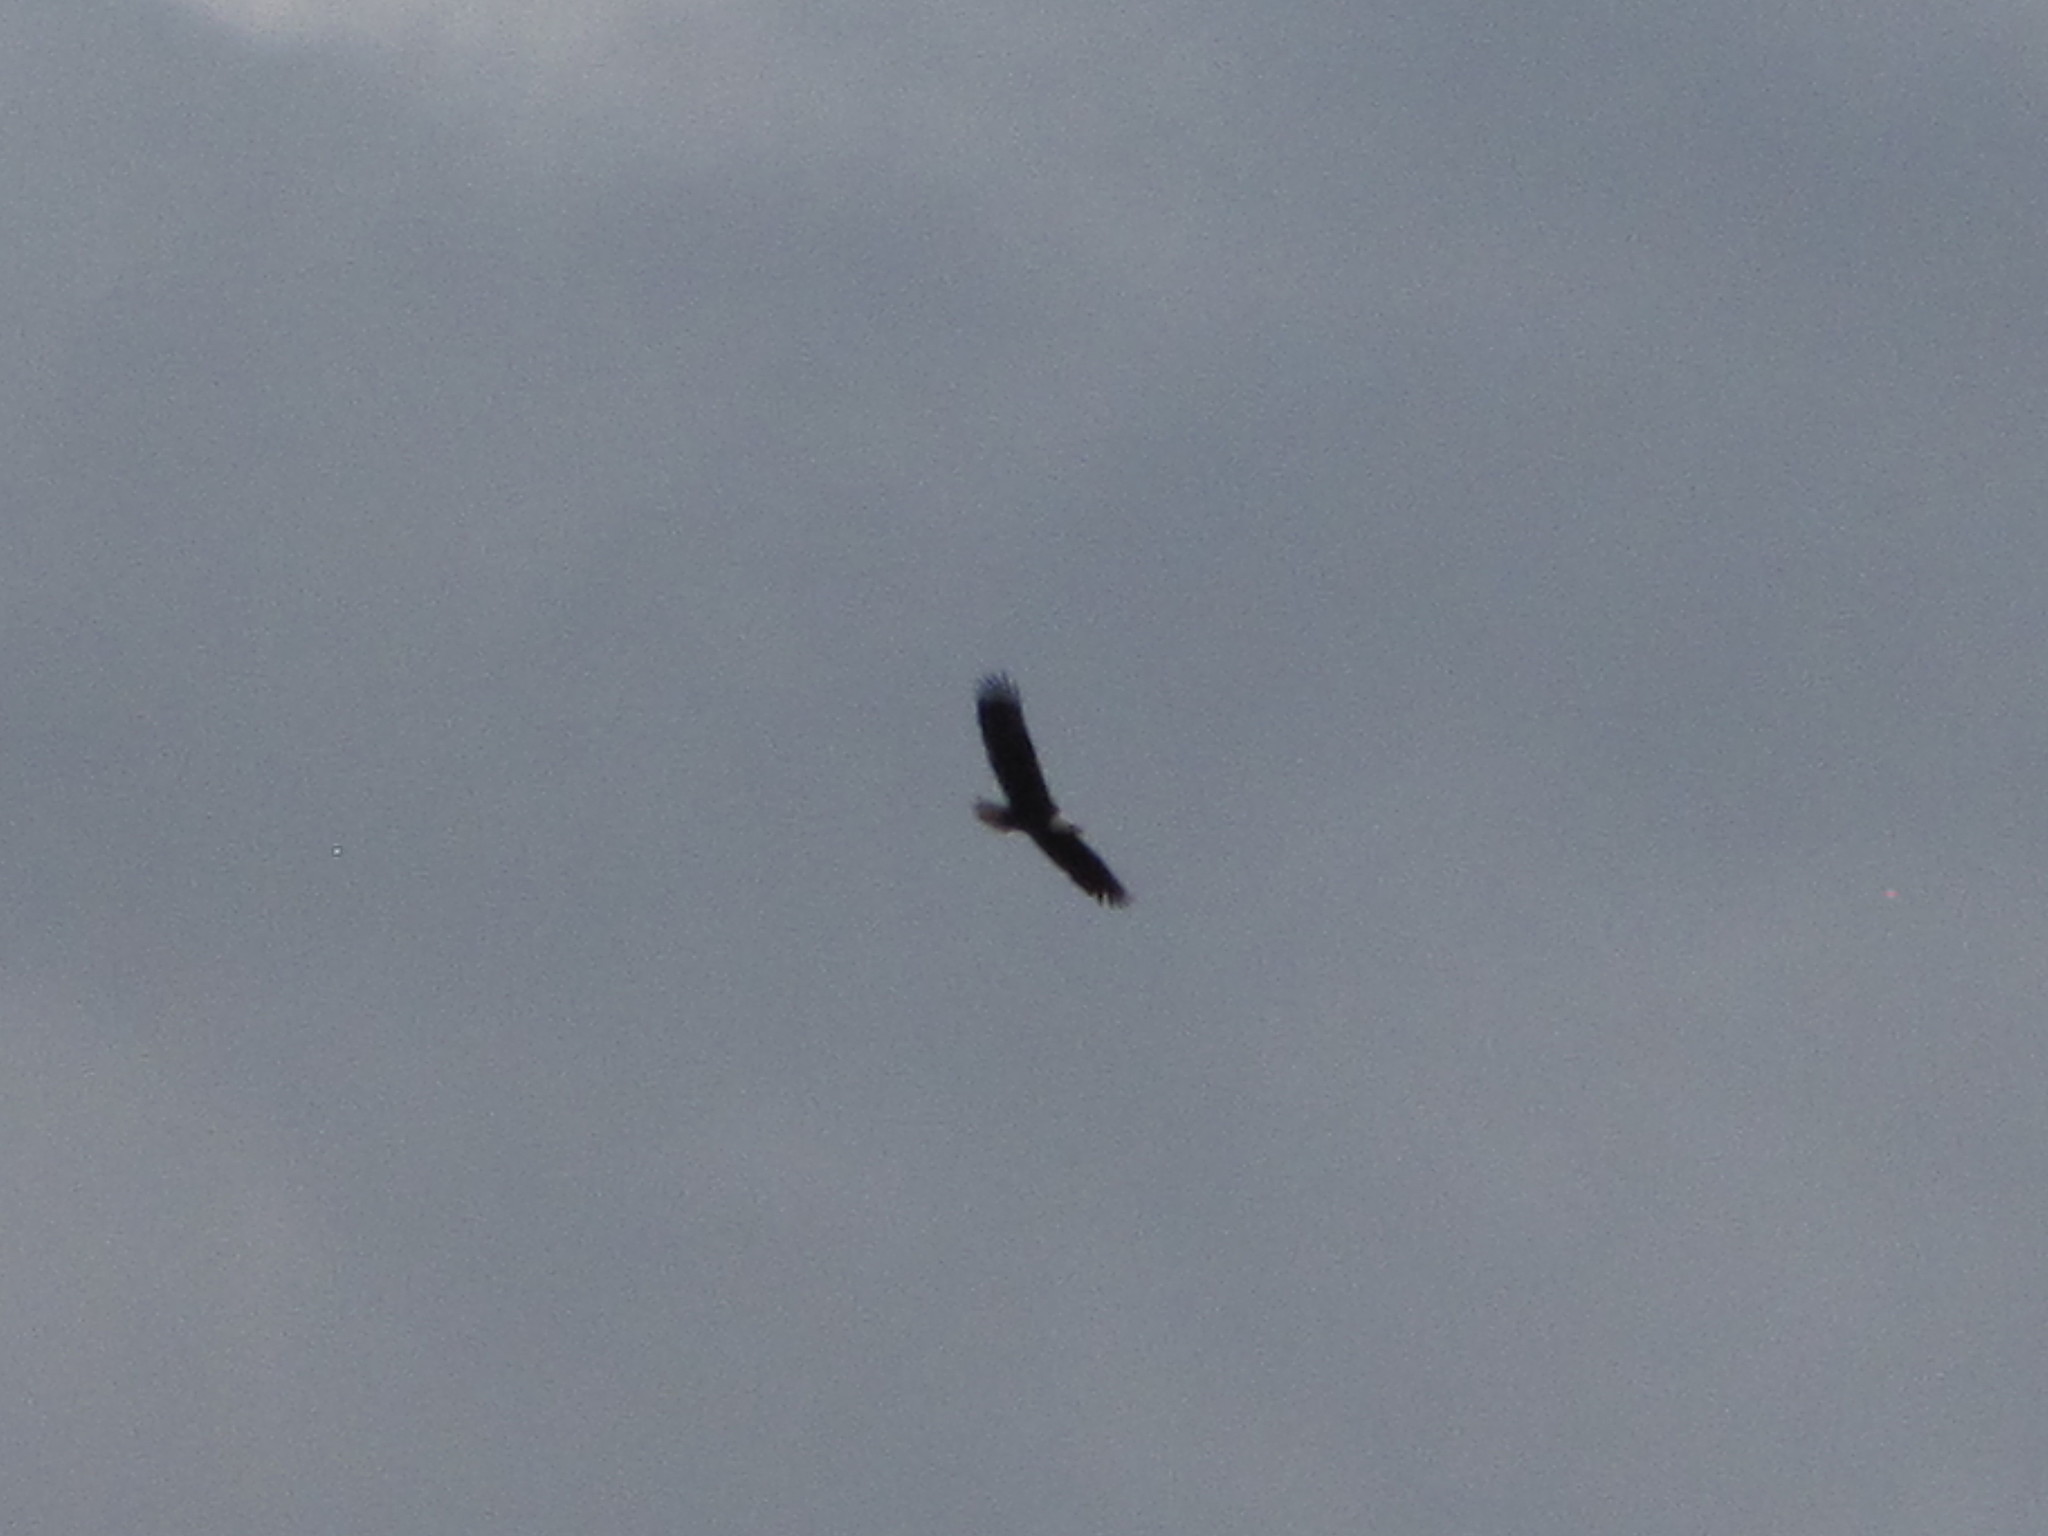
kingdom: Animalia
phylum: Chordata
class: Aves
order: Accipitriformes
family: Accipitridae
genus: Haliaeetus
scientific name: Haliaeetus leucocephalus
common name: Bald eagle
